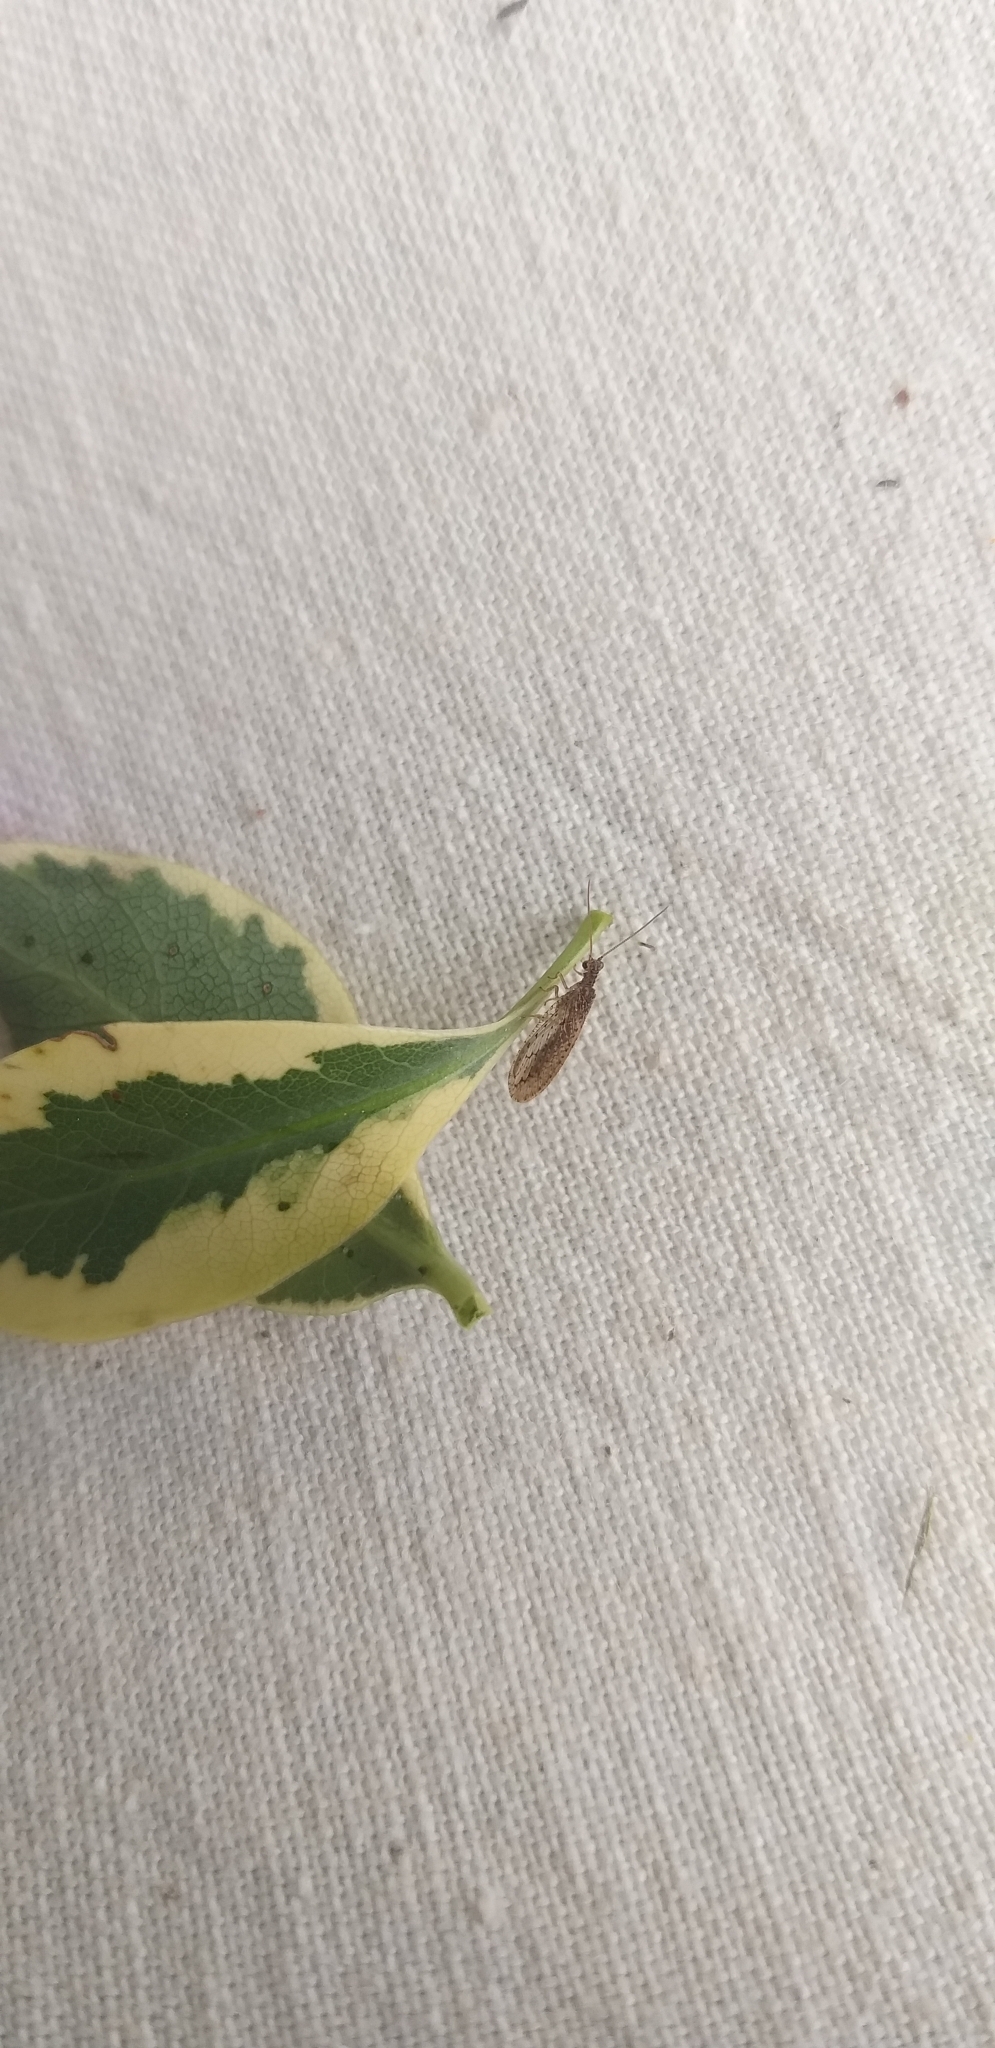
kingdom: Animalia
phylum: Arthropoda
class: Insecta
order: Neuroptera
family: Hemerobiidae
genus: Micromus
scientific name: Micromus tasmaniae
